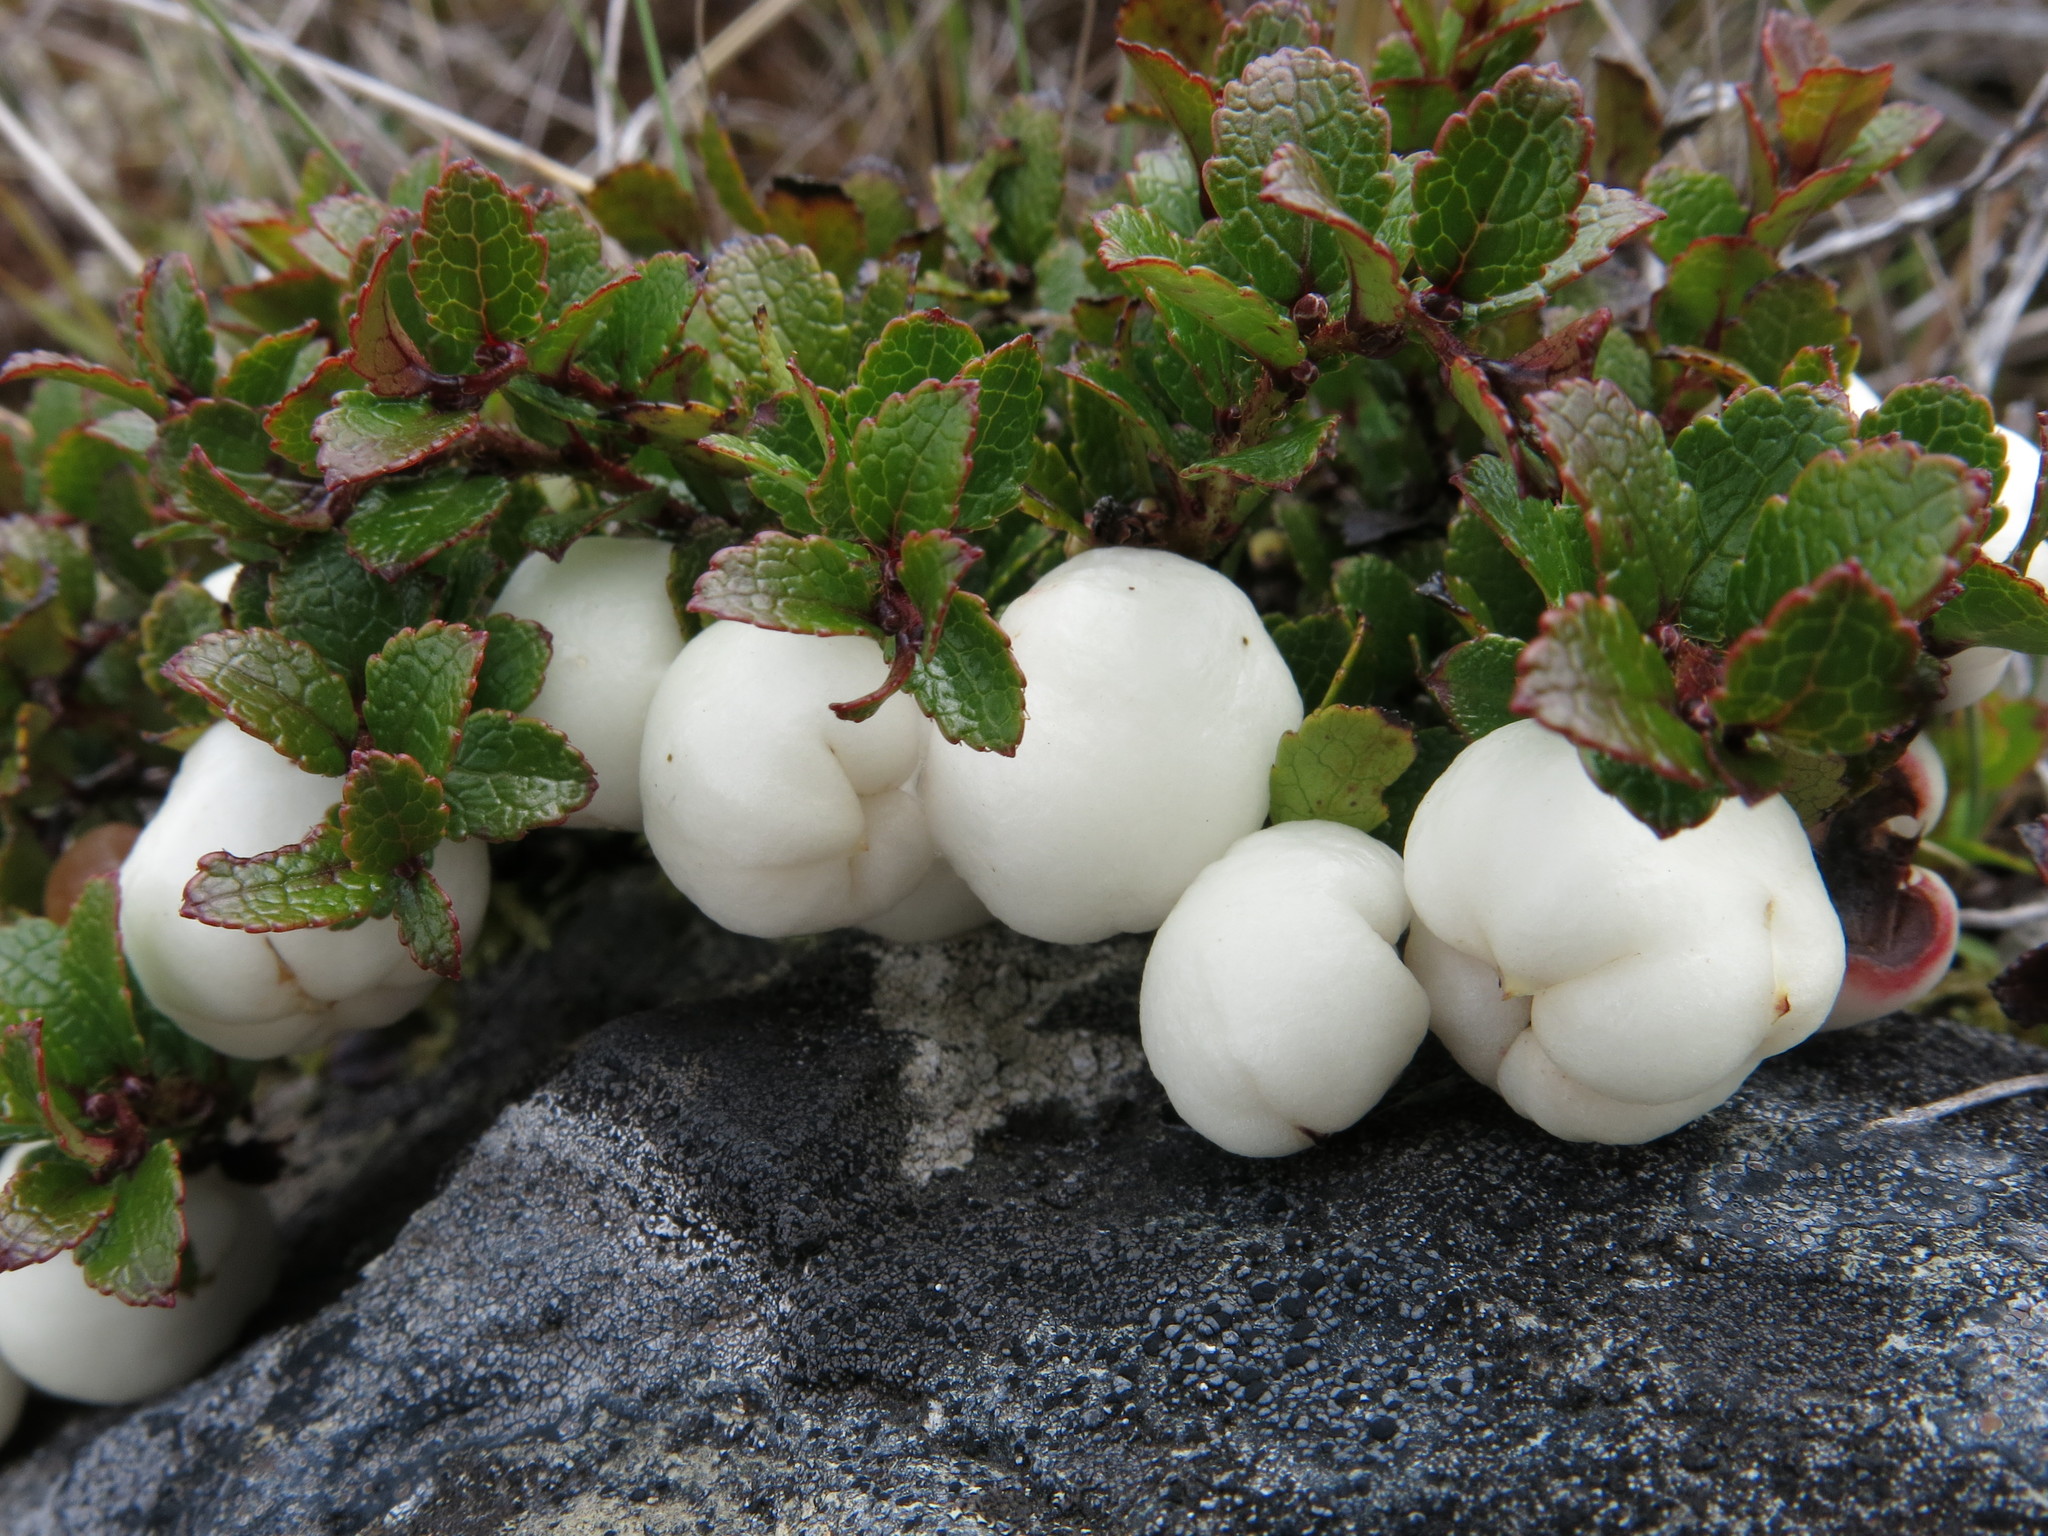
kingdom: Plantae
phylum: Tracheophyta
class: Magnoliopsida
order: Ericales
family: Ericaceae
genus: Gaultheria
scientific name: Gaultheria depressa
